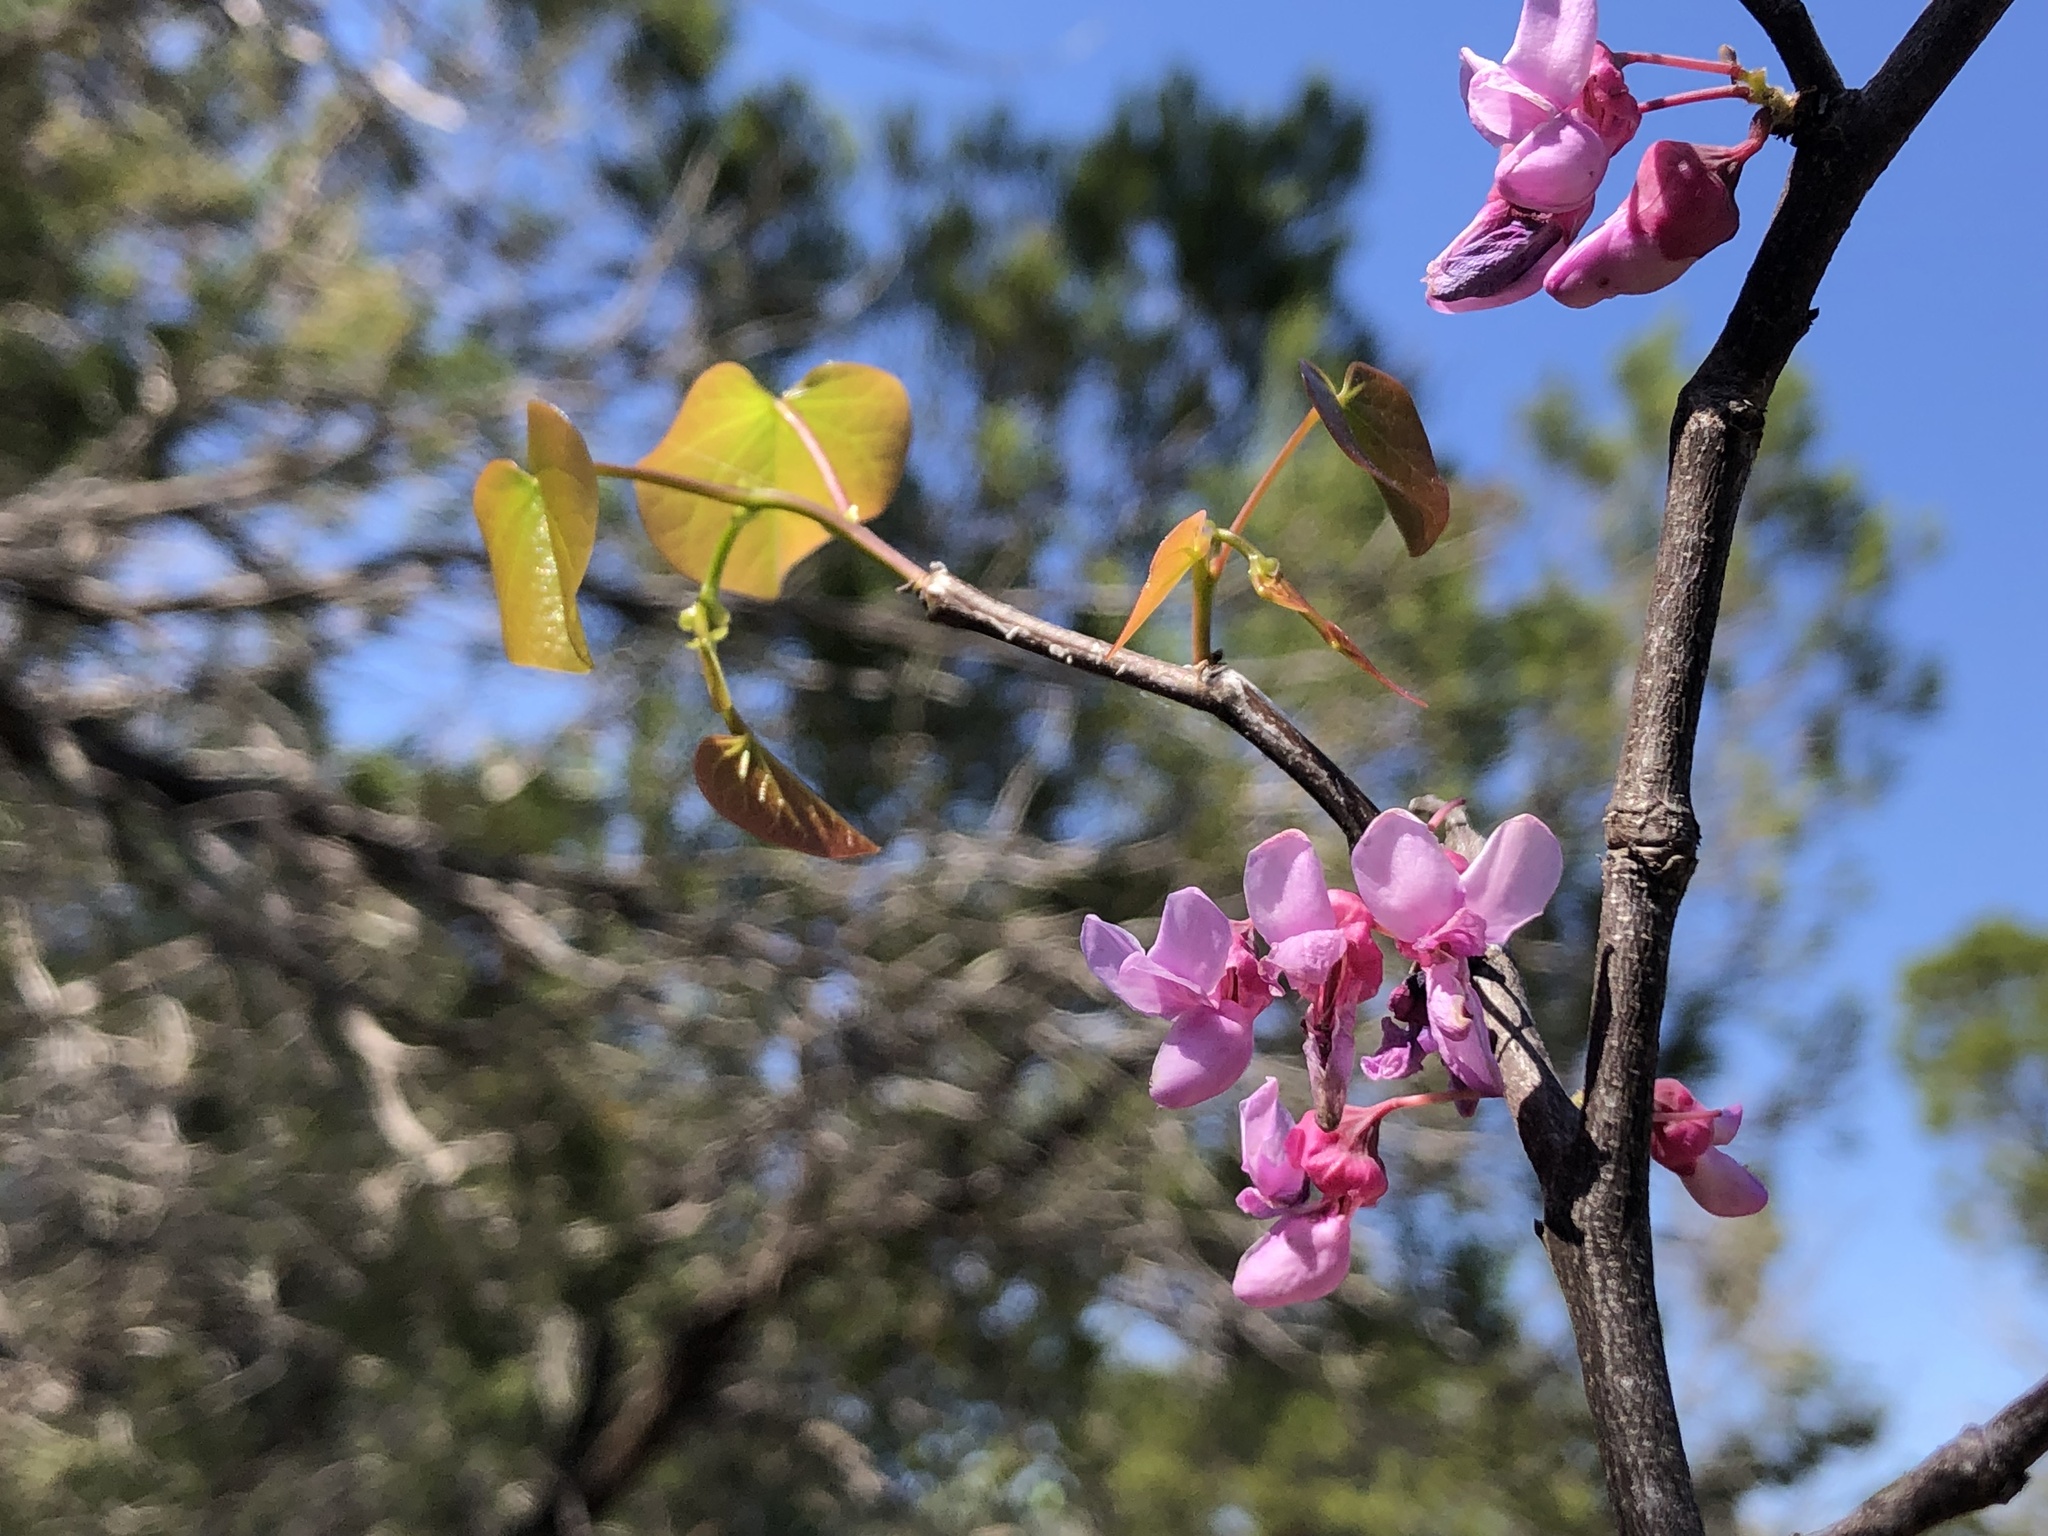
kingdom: Plantae
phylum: Tracheophyta
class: Magnoliopsida
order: Fabales
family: Fabaceae
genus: Cercis
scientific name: Cercis canadensis
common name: Eastern redbud
